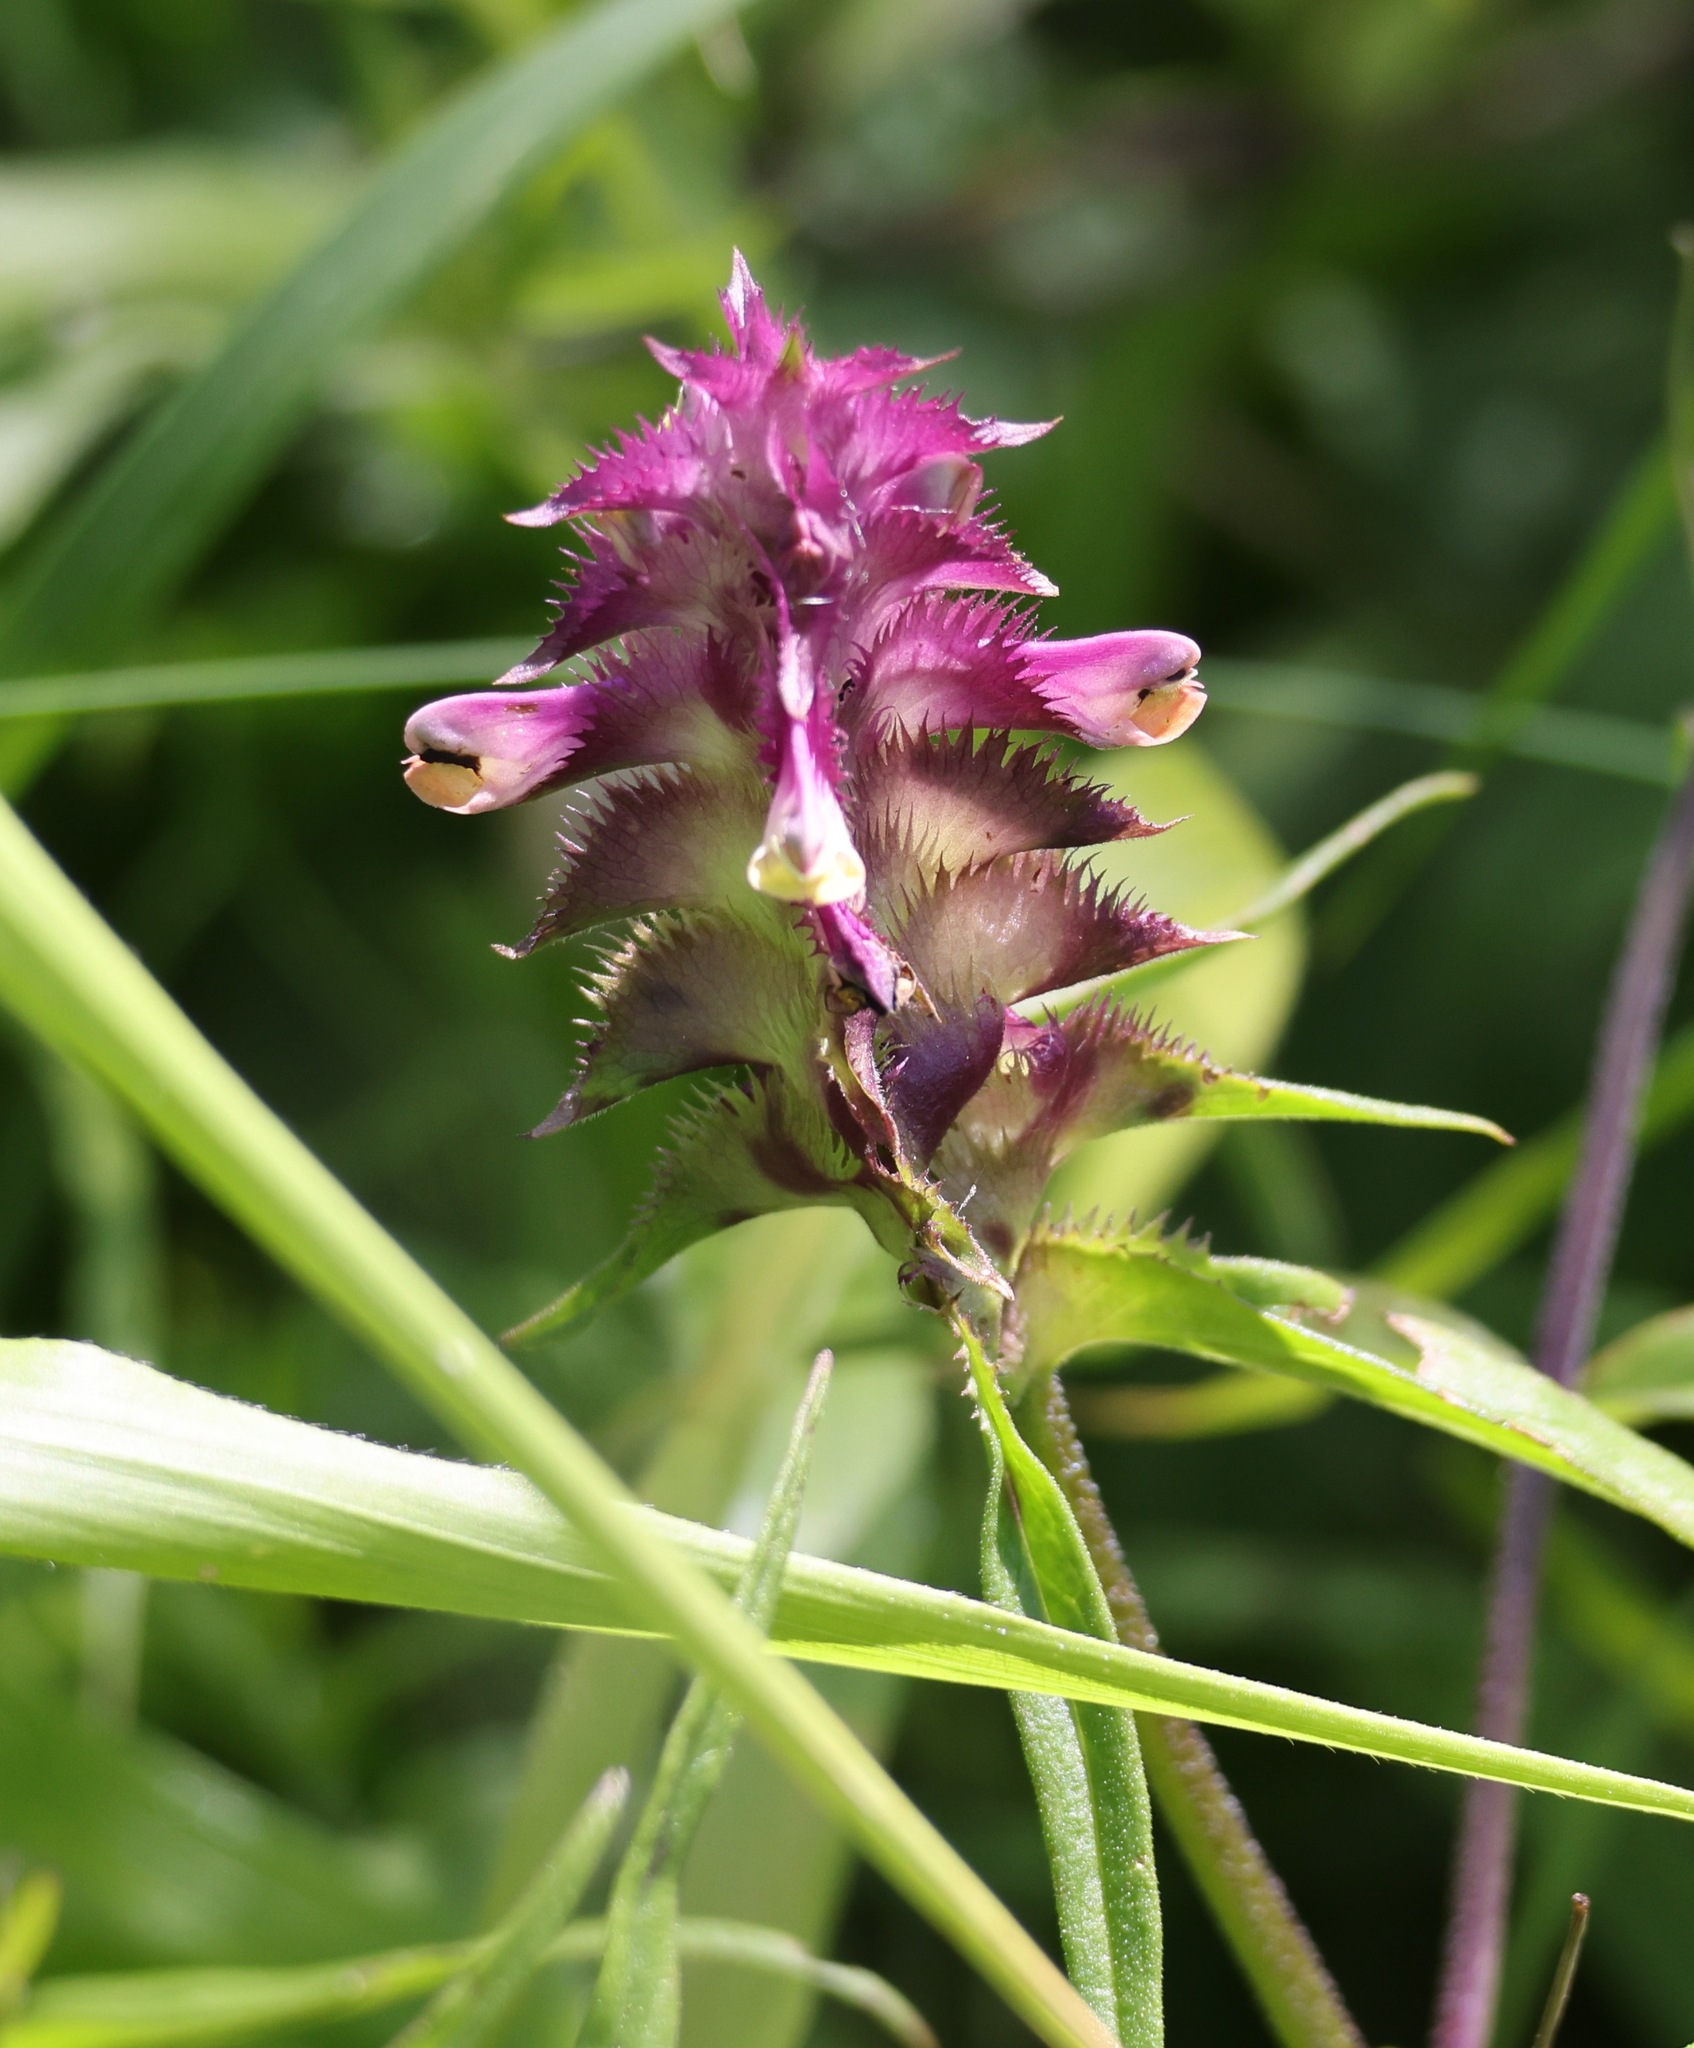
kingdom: Plantae
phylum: Tracheophyta
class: Magnoliopsida
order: Lamiales
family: Orobanchaceae
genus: Melampyrum
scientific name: Melampyrum cristatum
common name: Crested cow-wheat
